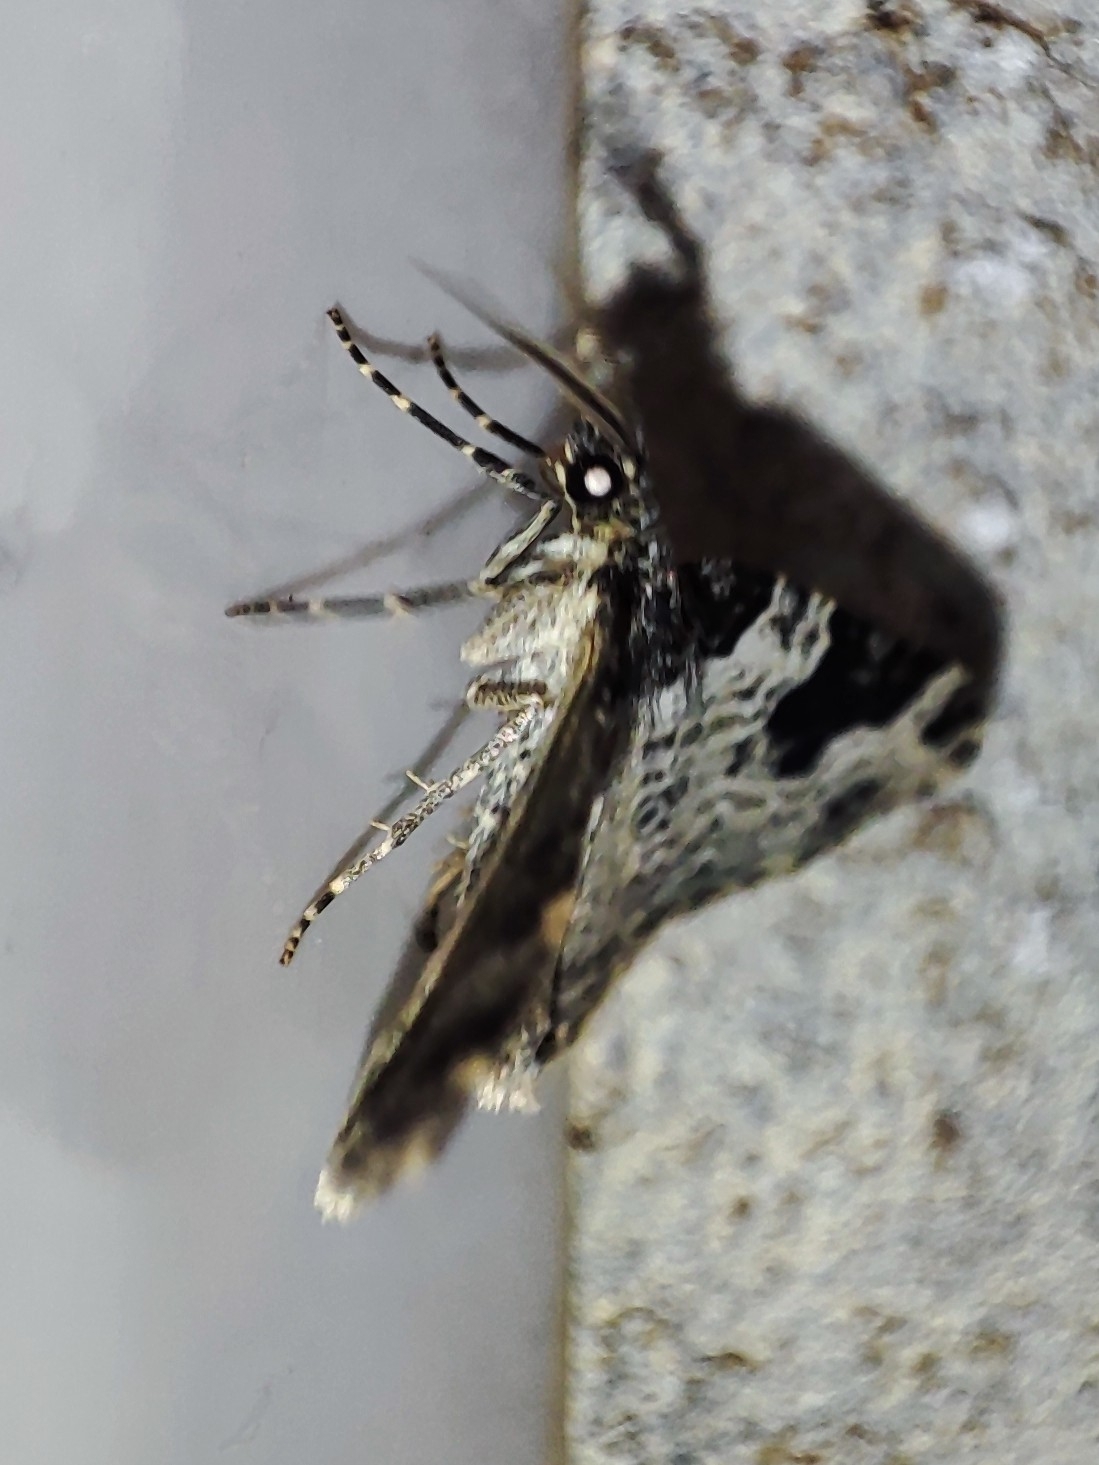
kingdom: Animalia
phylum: Arthropoda
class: Insecta
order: Lepidoptera
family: Geometridae
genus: Xanthorhoe
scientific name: Xanthorhoe fluctuata
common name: Garden carpet
